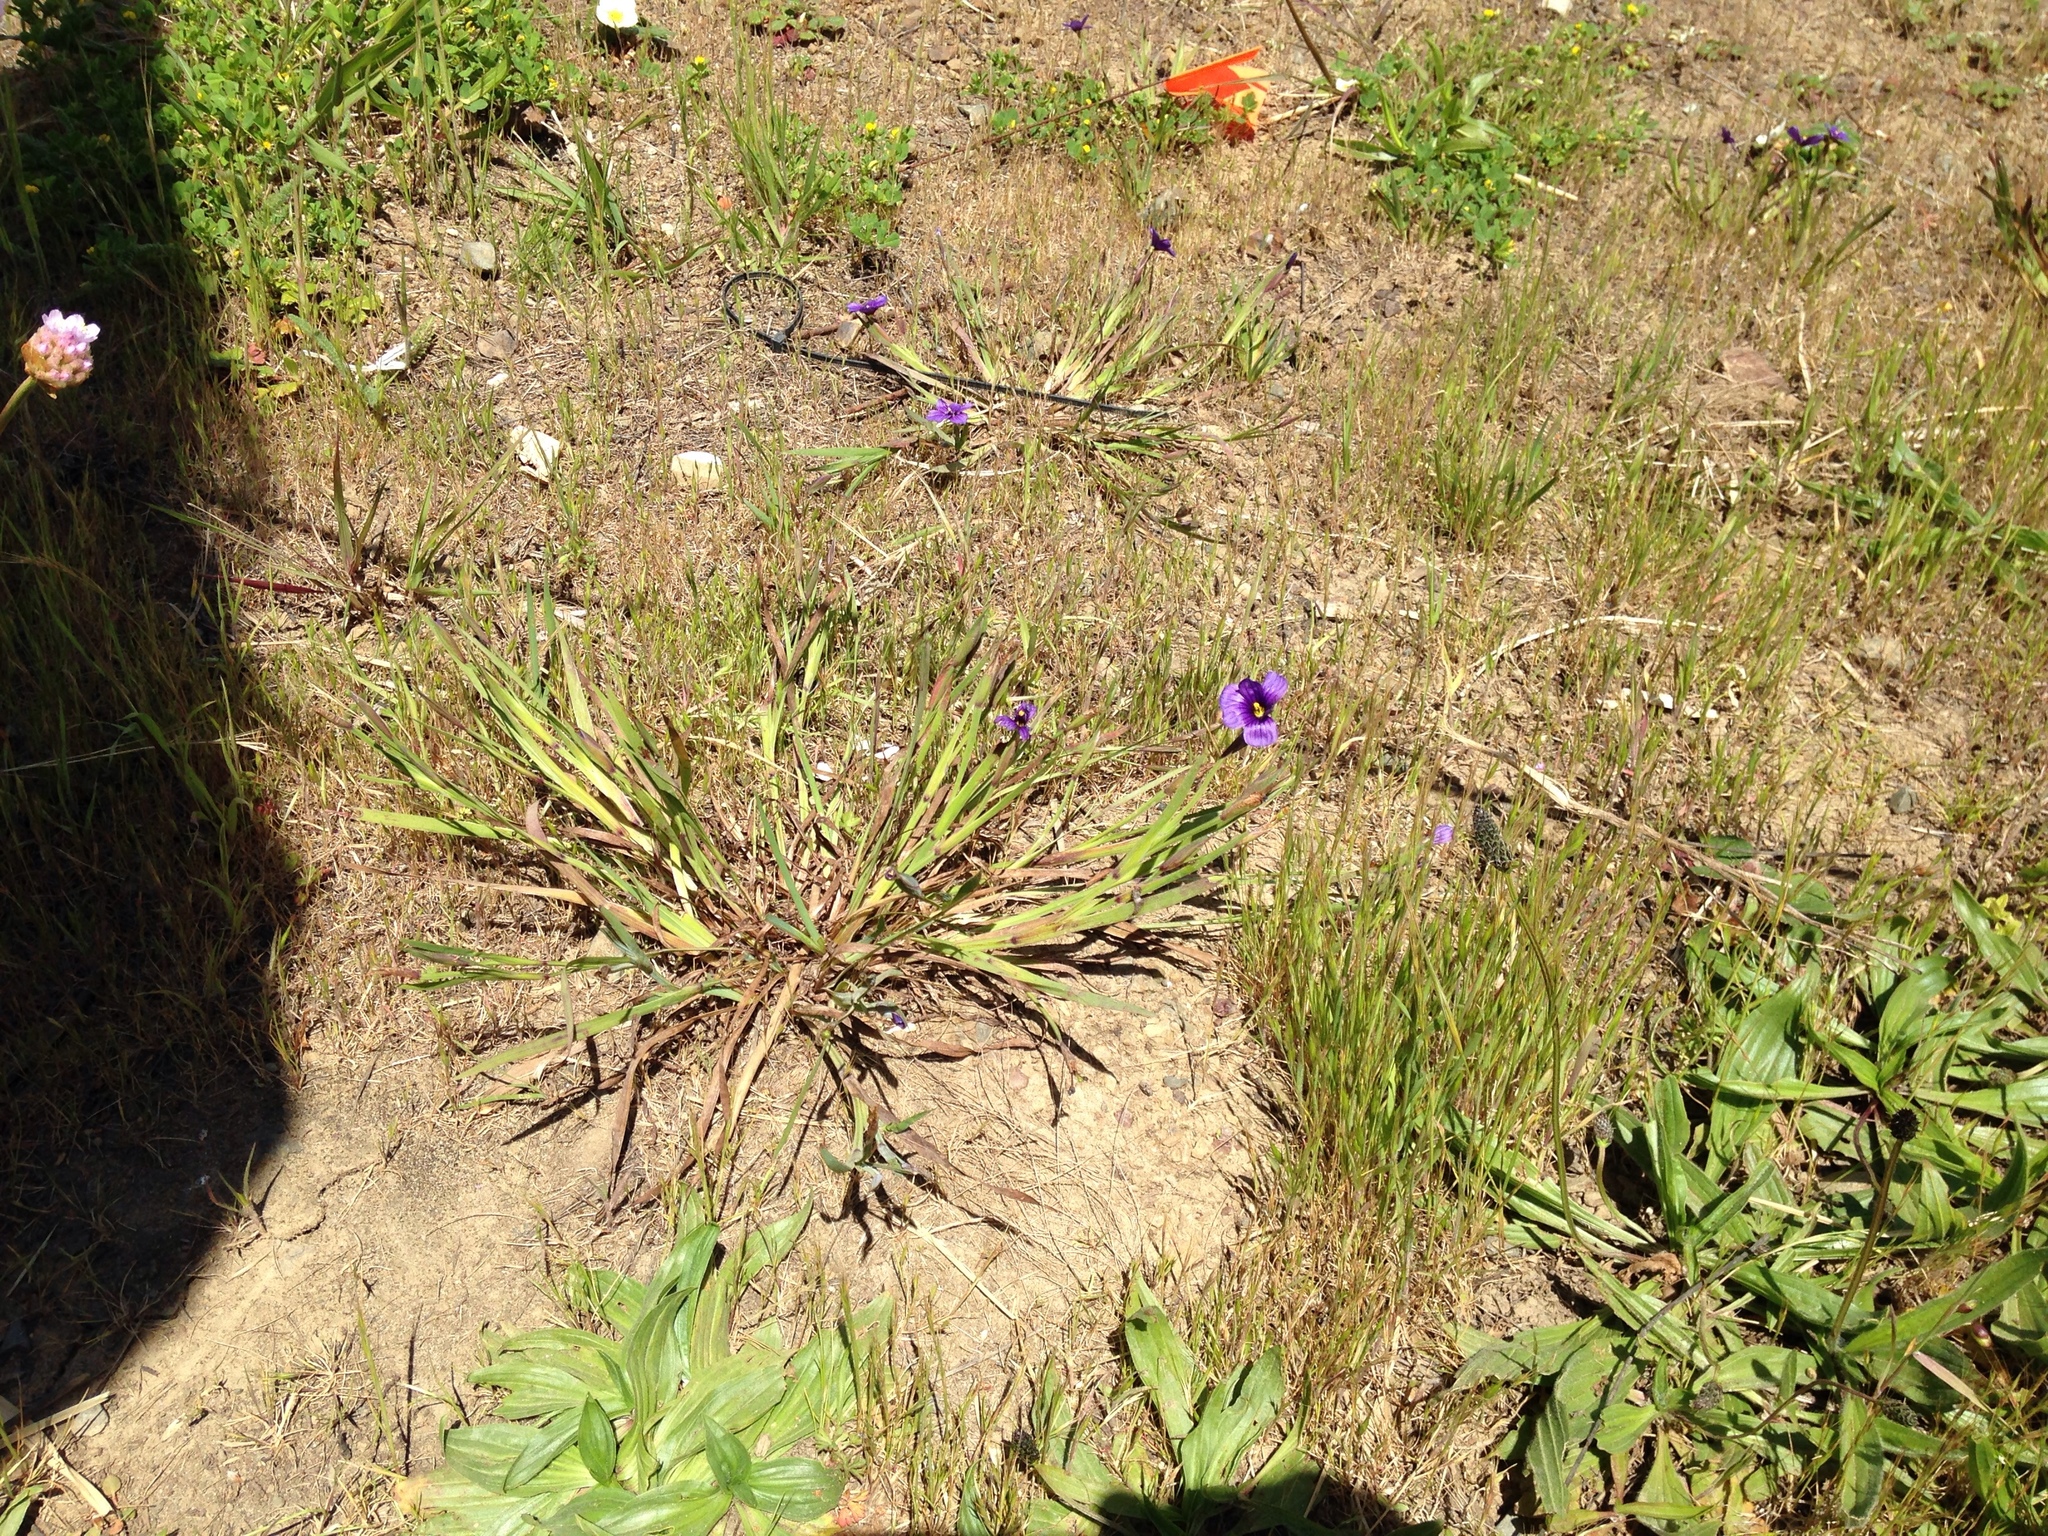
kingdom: Plantae
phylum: Tracheophyta
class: Liliopsida
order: Asparagales
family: Iridaceae
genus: Sisyrinchium
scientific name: Sisyrinchium bellum
